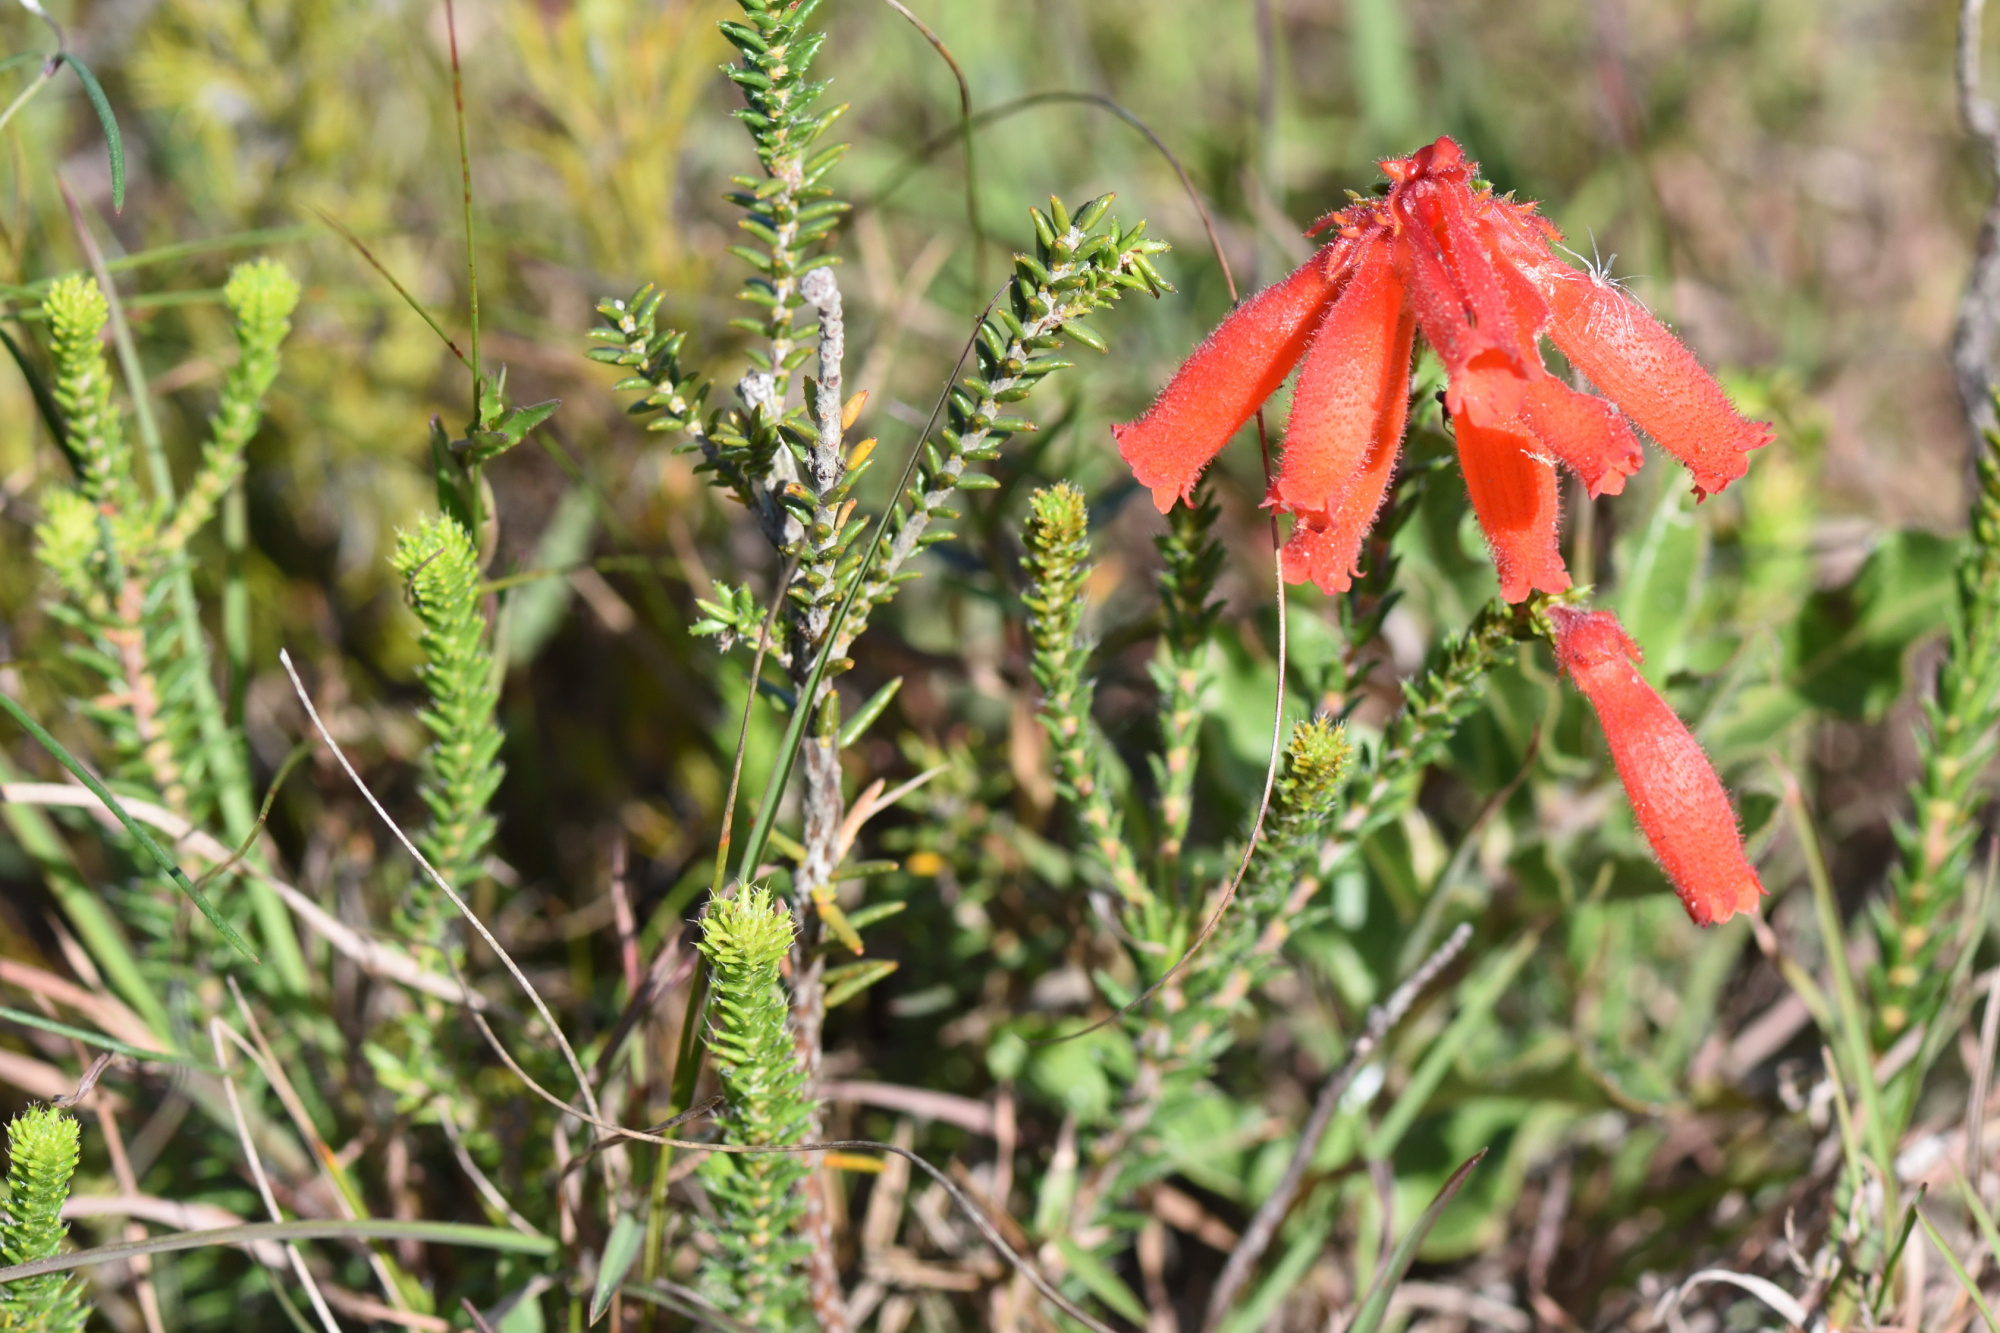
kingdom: Plantae
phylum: Tracheophyta
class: Magnoliopsida
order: Ericales
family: Ericaceae
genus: Erica
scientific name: Erica cerinthoides
